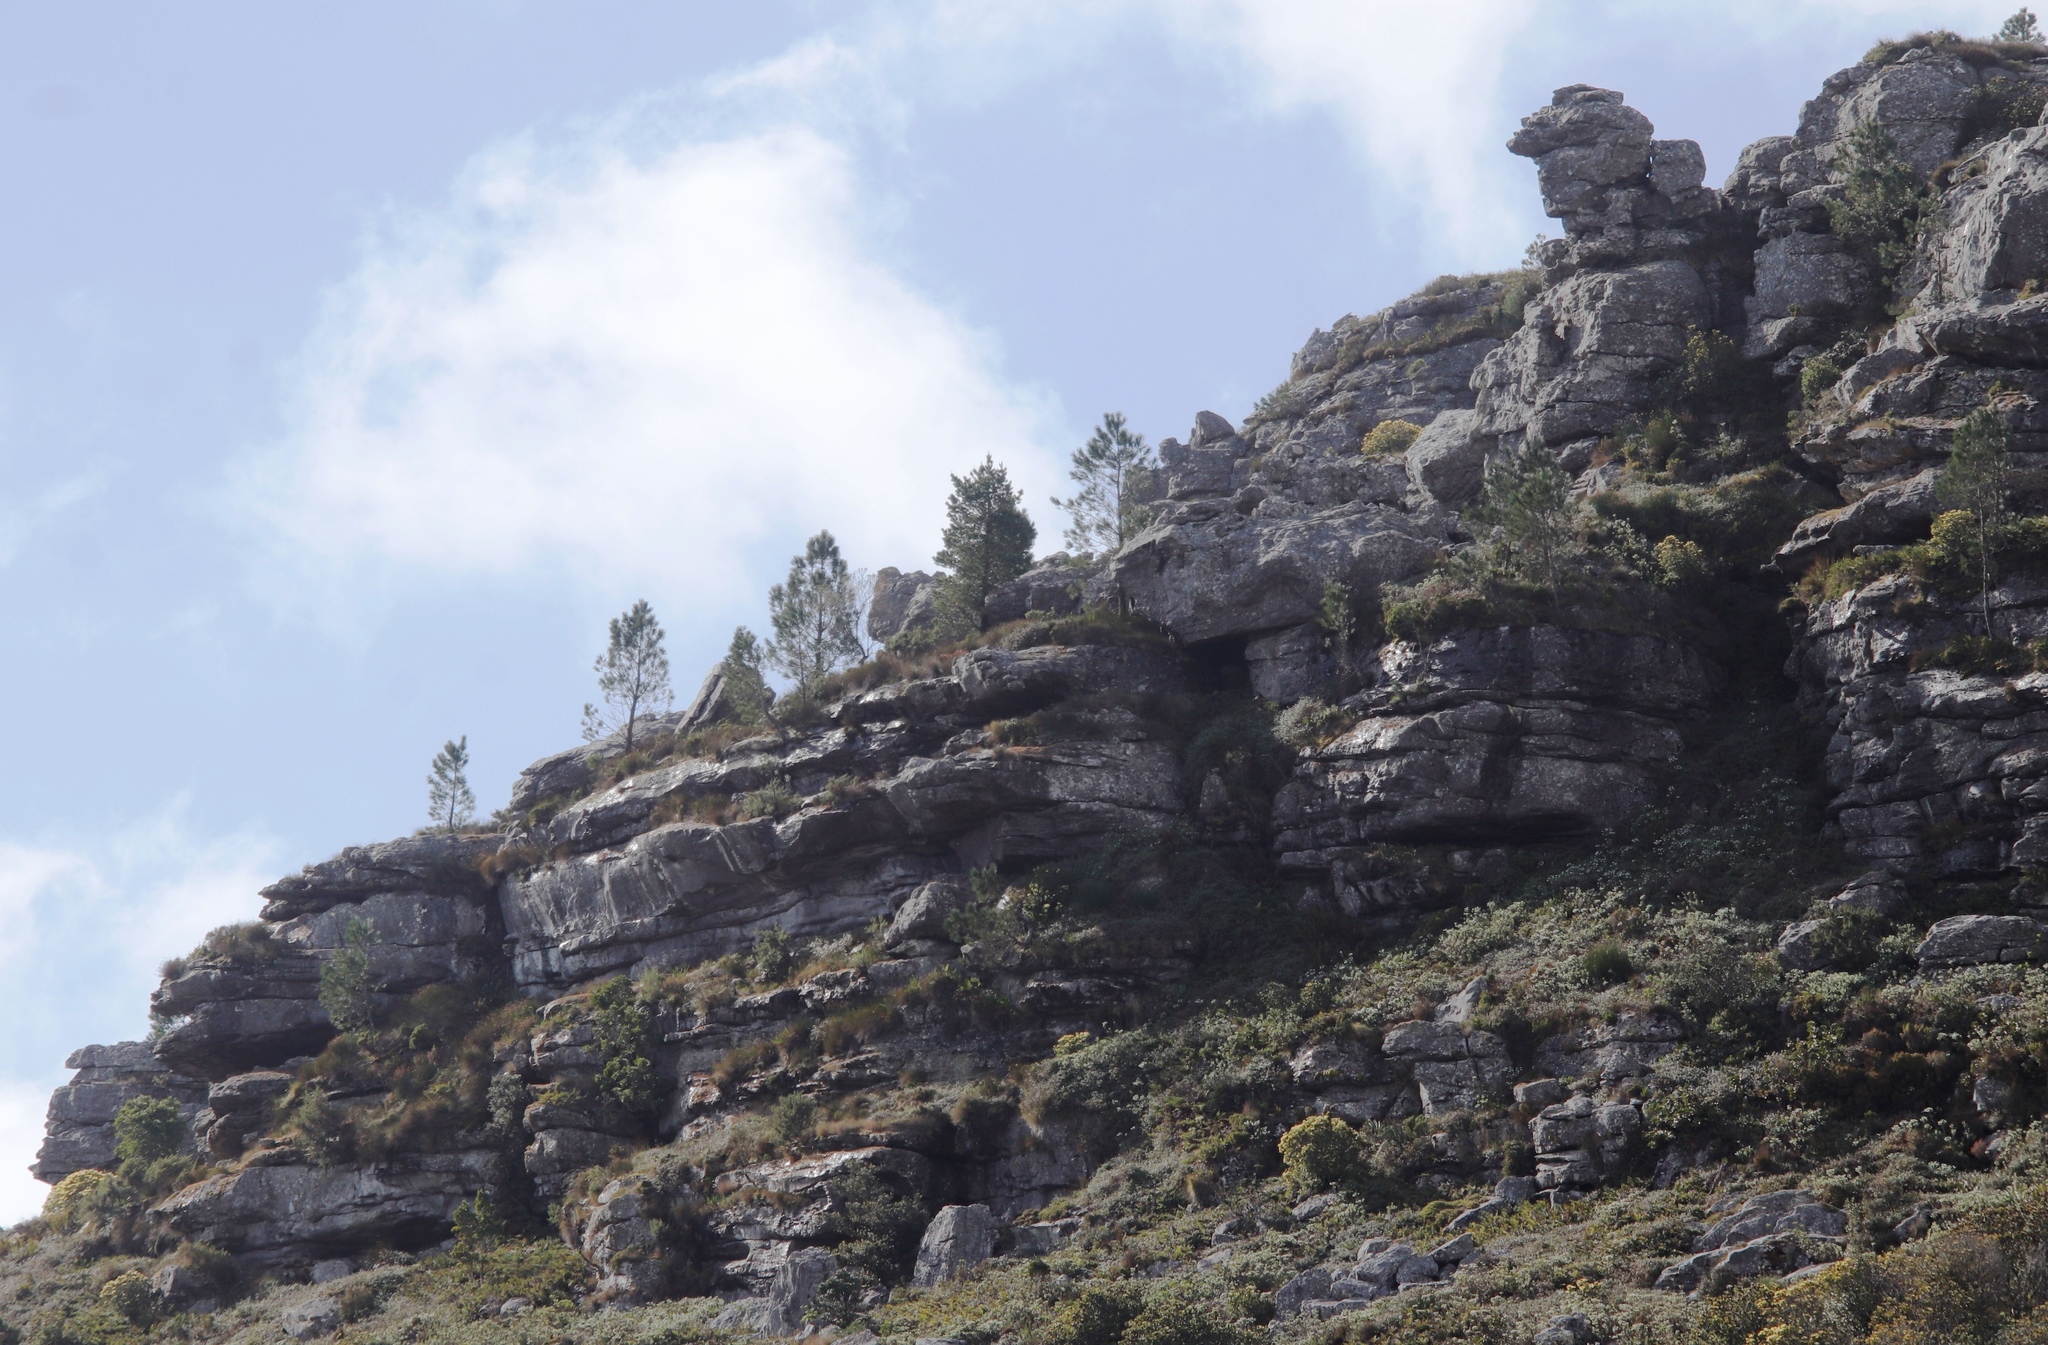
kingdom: Plantae
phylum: Tracheophyta
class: Pinopsida
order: Pinales
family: Pinaceae
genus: Pinus
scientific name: Pinus pinaster
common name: Maritime pine
